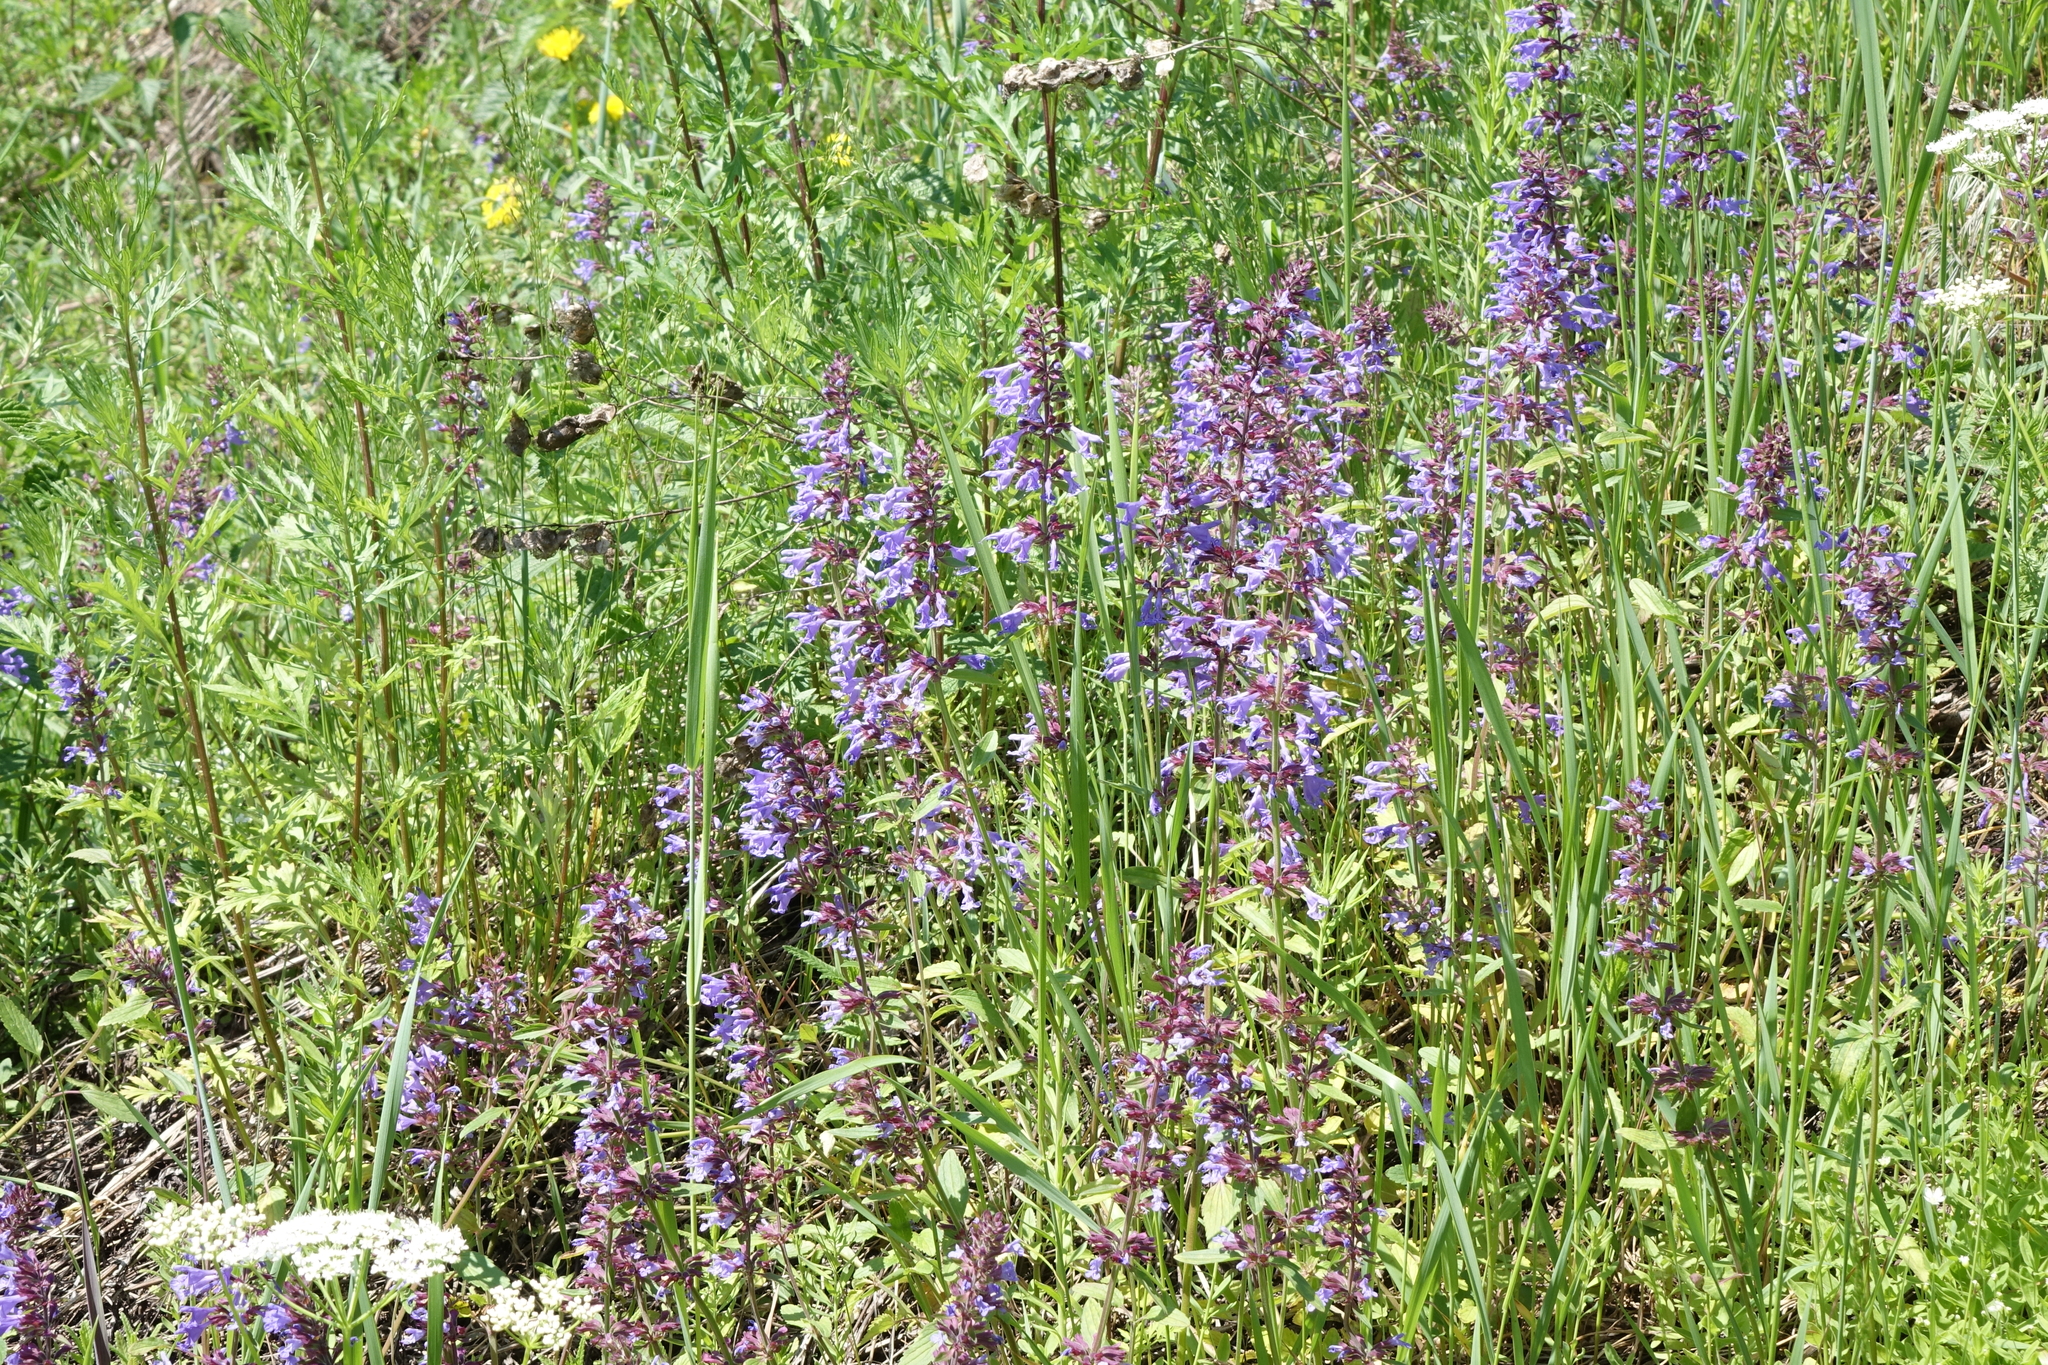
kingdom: Plantae
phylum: Tracheophyta
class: Magnoliopsida
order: Lamiales
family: Lamiaceae
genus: Dracocephalum
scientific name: Dracocephalum nutans
